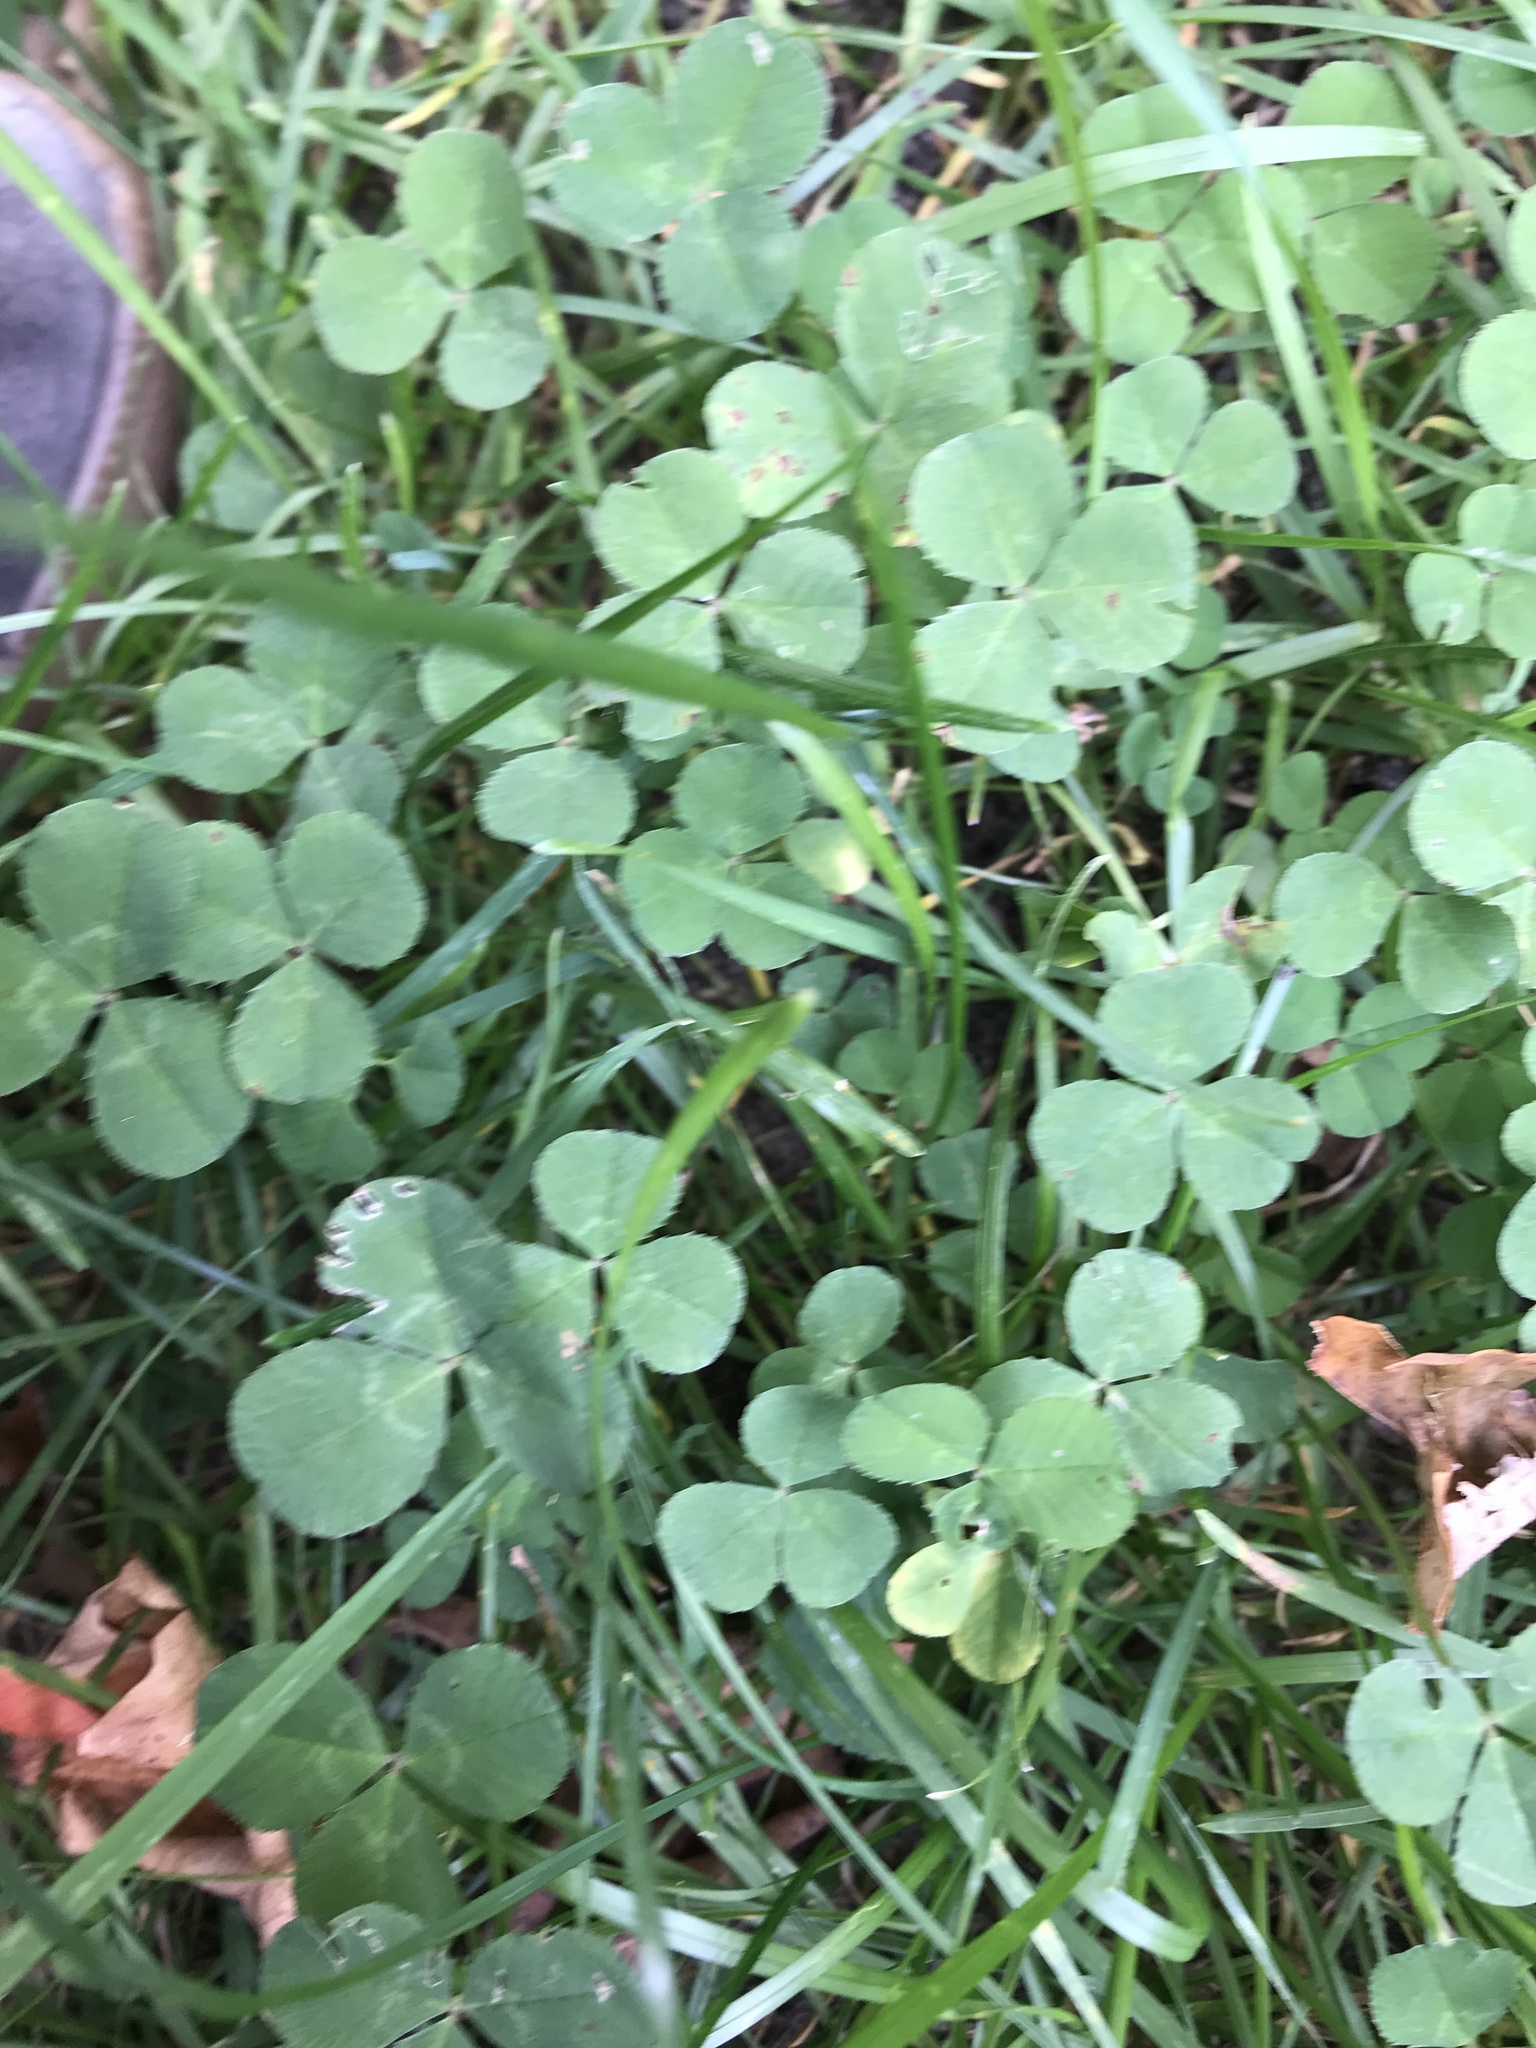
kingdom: Plantae
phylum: Tracheophyta
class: Magnoliopsida
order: Fabales
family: Fabaceae
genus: Trifolium
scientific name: Trifolium repens
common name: White clover
